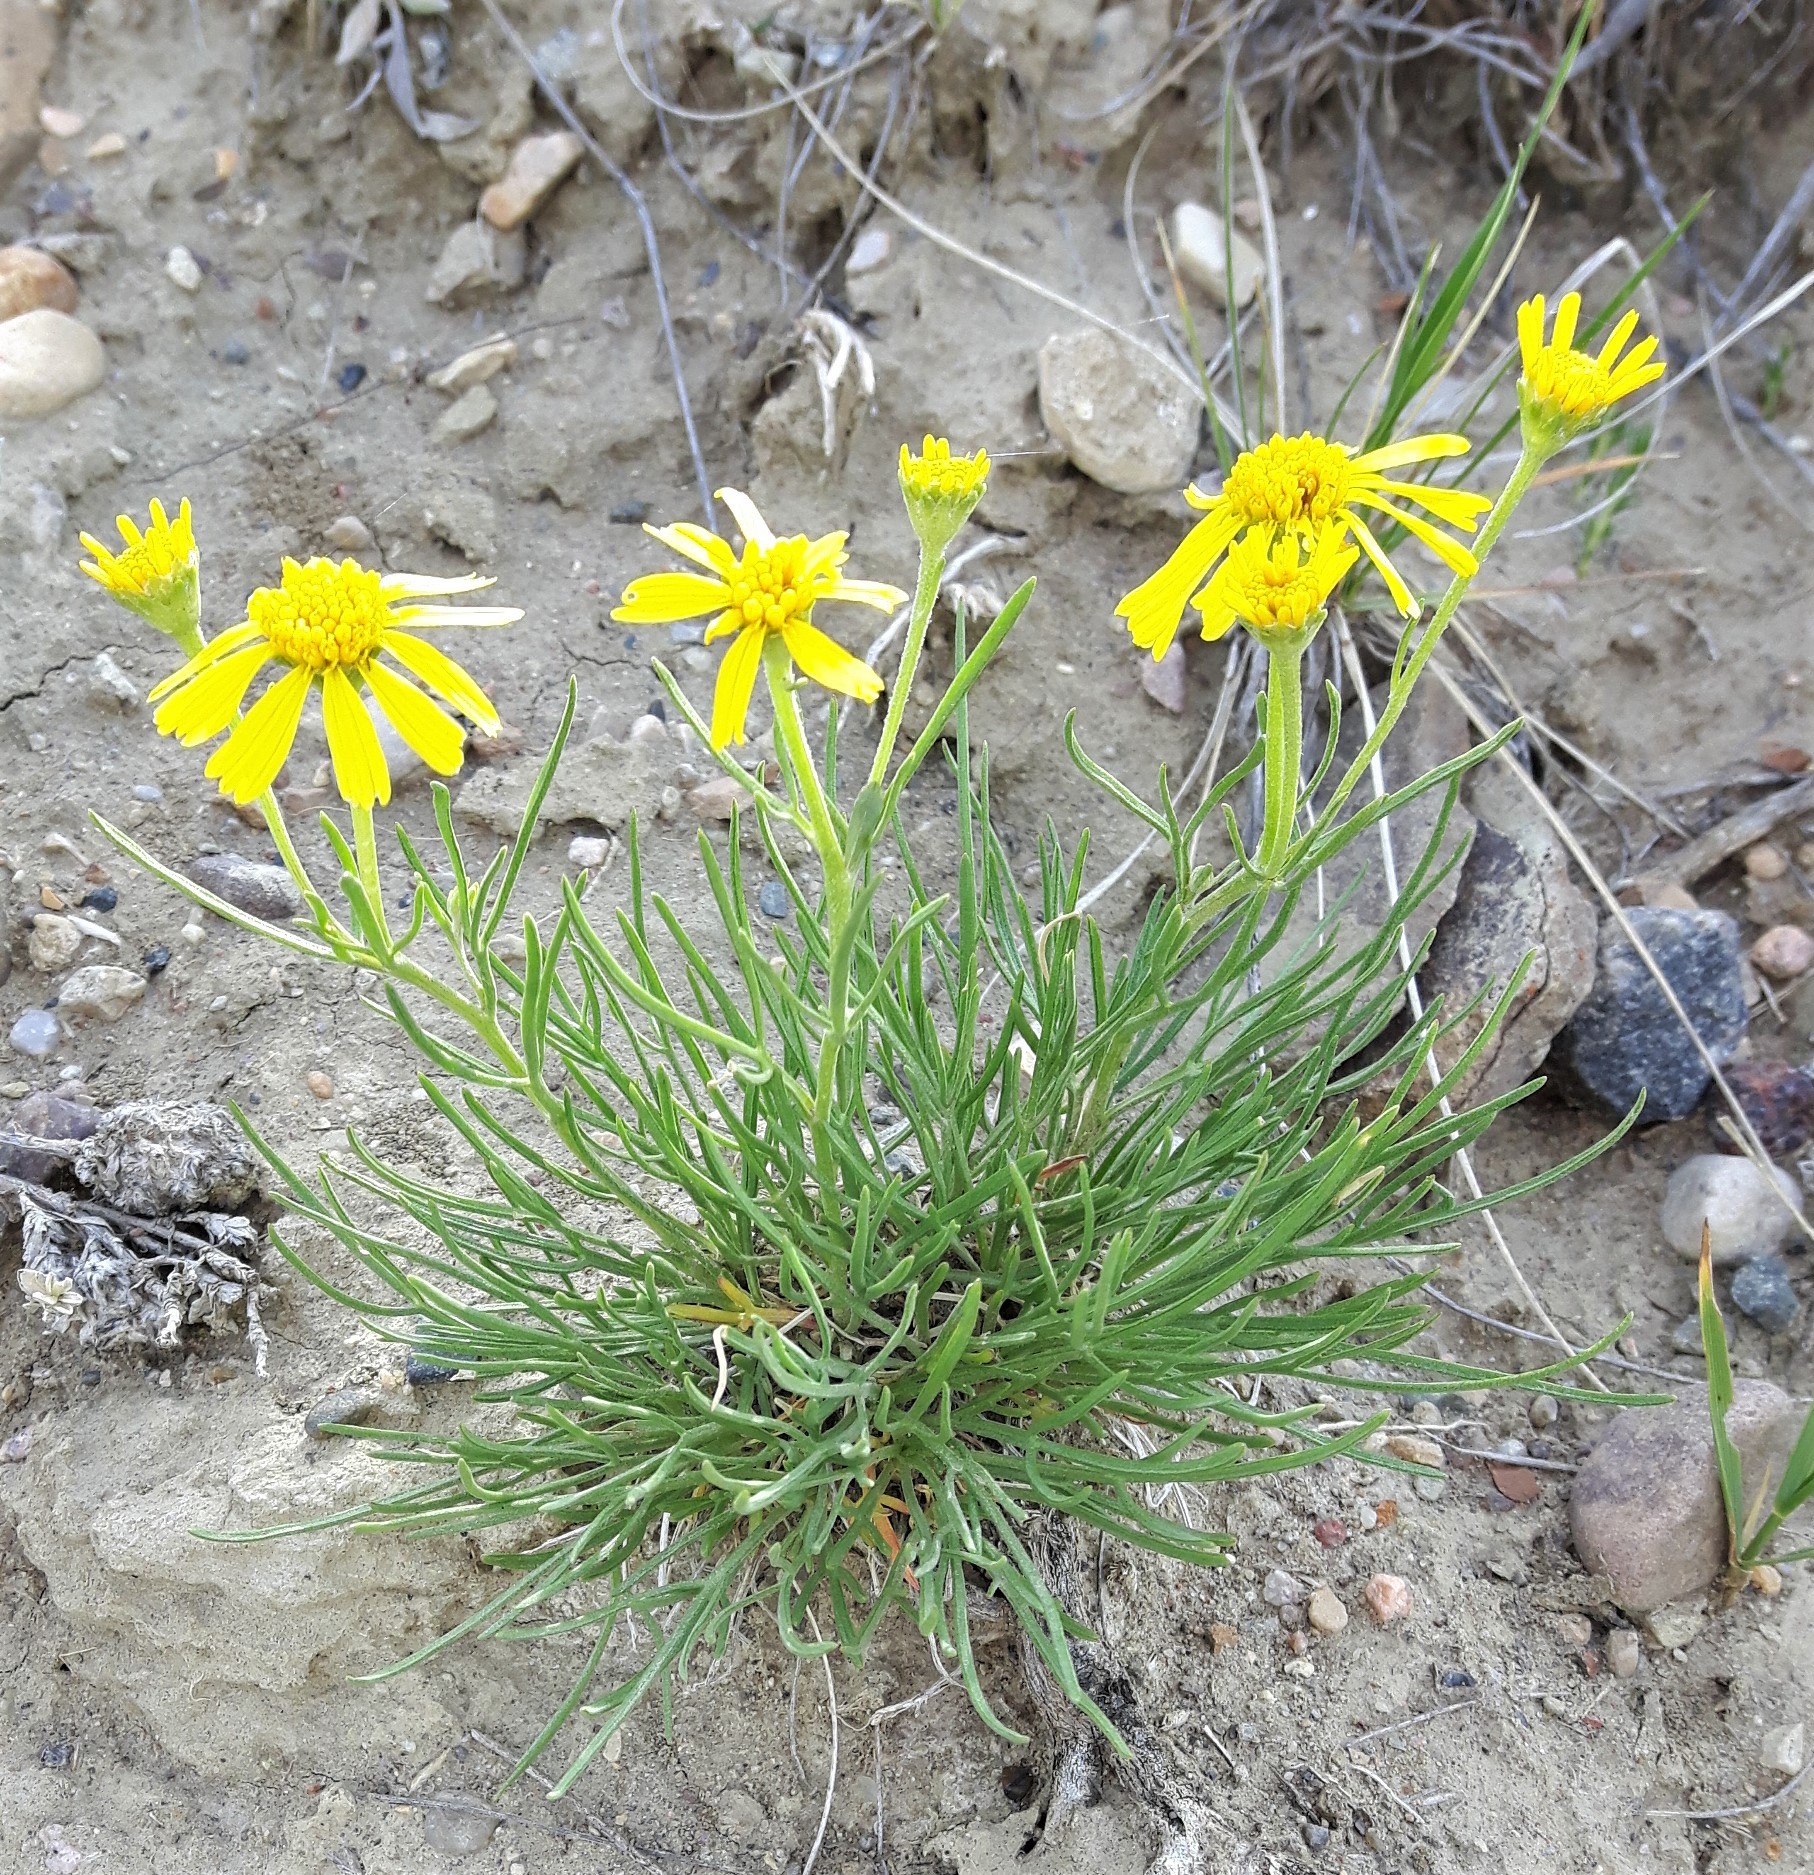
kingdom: Plantae
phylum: Tracheophyta
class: Magnoliopsida
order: Asterales
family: Asteraceae
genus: Hymenoxys
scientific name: Hymenoxys richardsonii
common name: Pingue rubberweed
